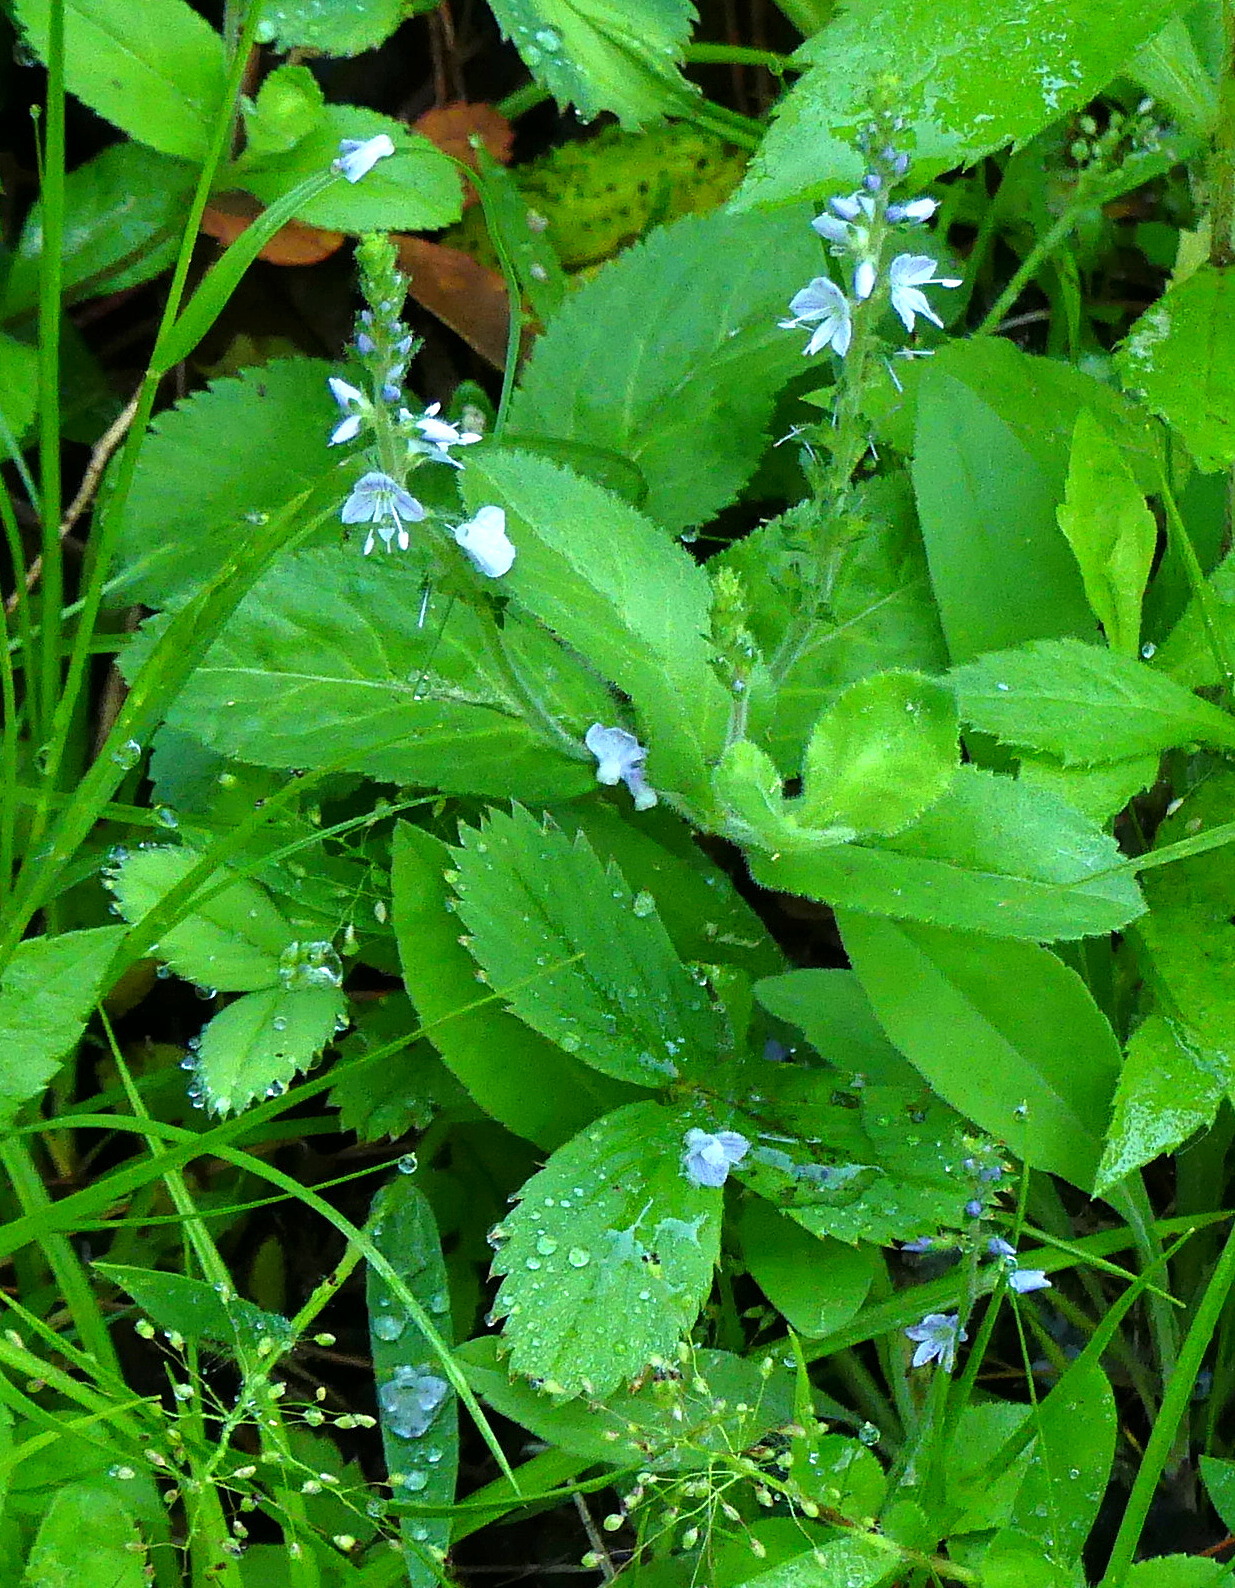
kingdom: Plantae
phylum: Tracheophyta
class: Magnoliopsida
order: Lamiales
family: Plantaginaceae
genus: Veronica
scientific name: Veronica officinalis
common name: Common speedwell
